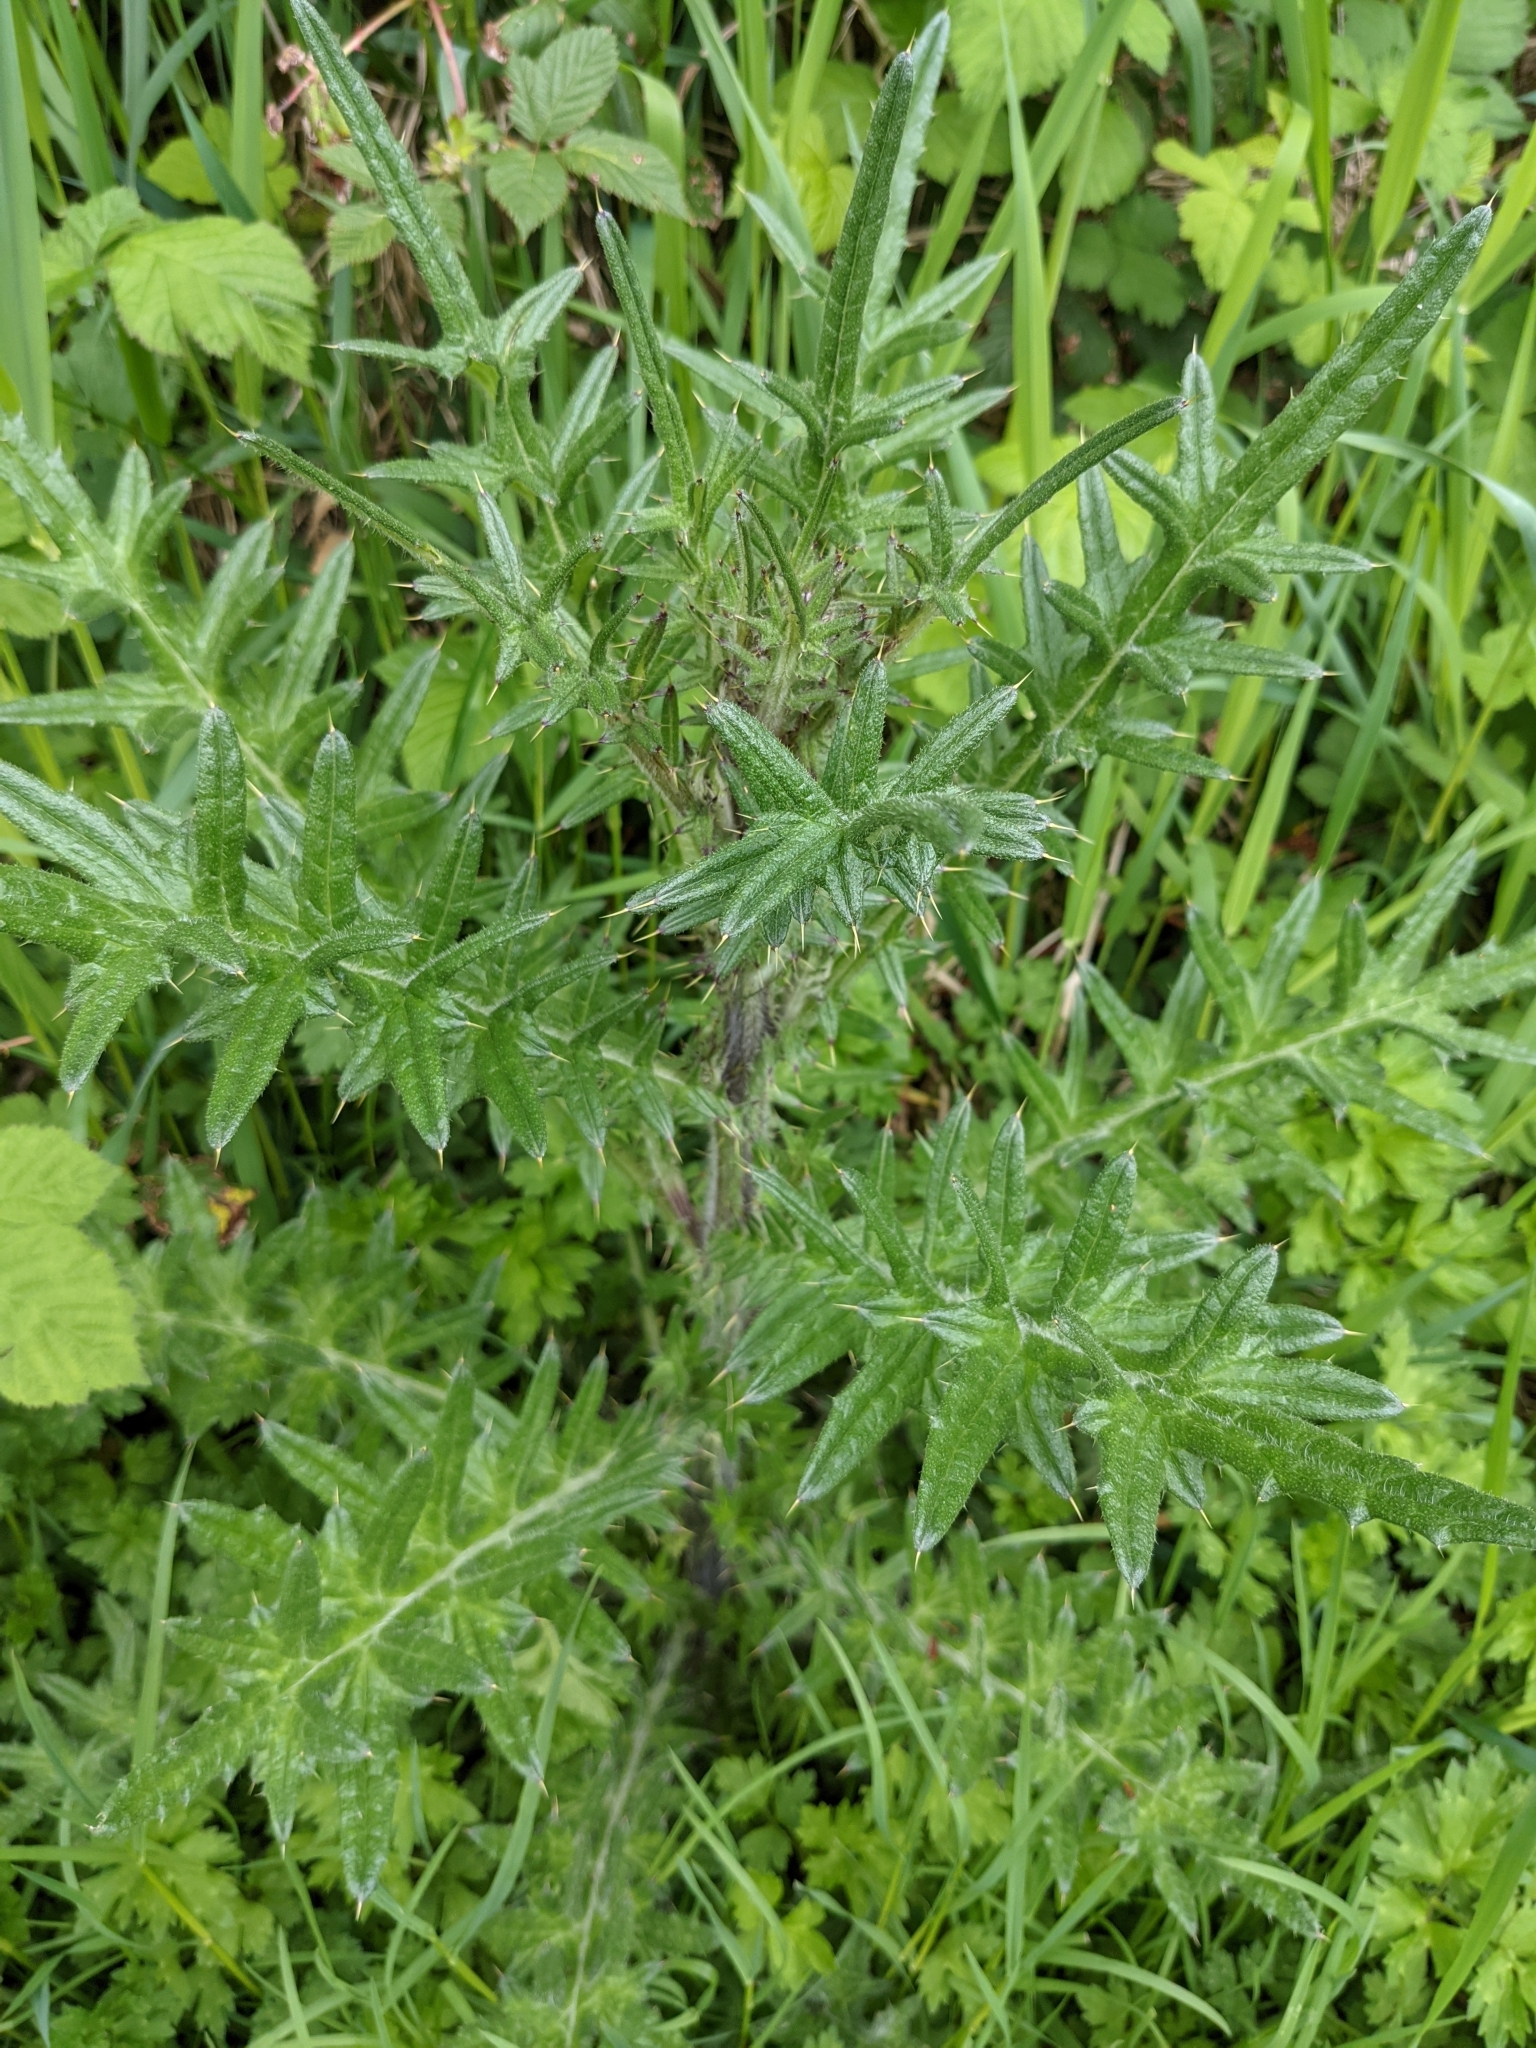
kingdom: Plantae
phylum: Tracheophyta
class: Magnoliopsida
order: Asterales
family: Asteraceae
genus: Cirsium
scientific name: Cirsium vulgare
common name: Bull thistle
